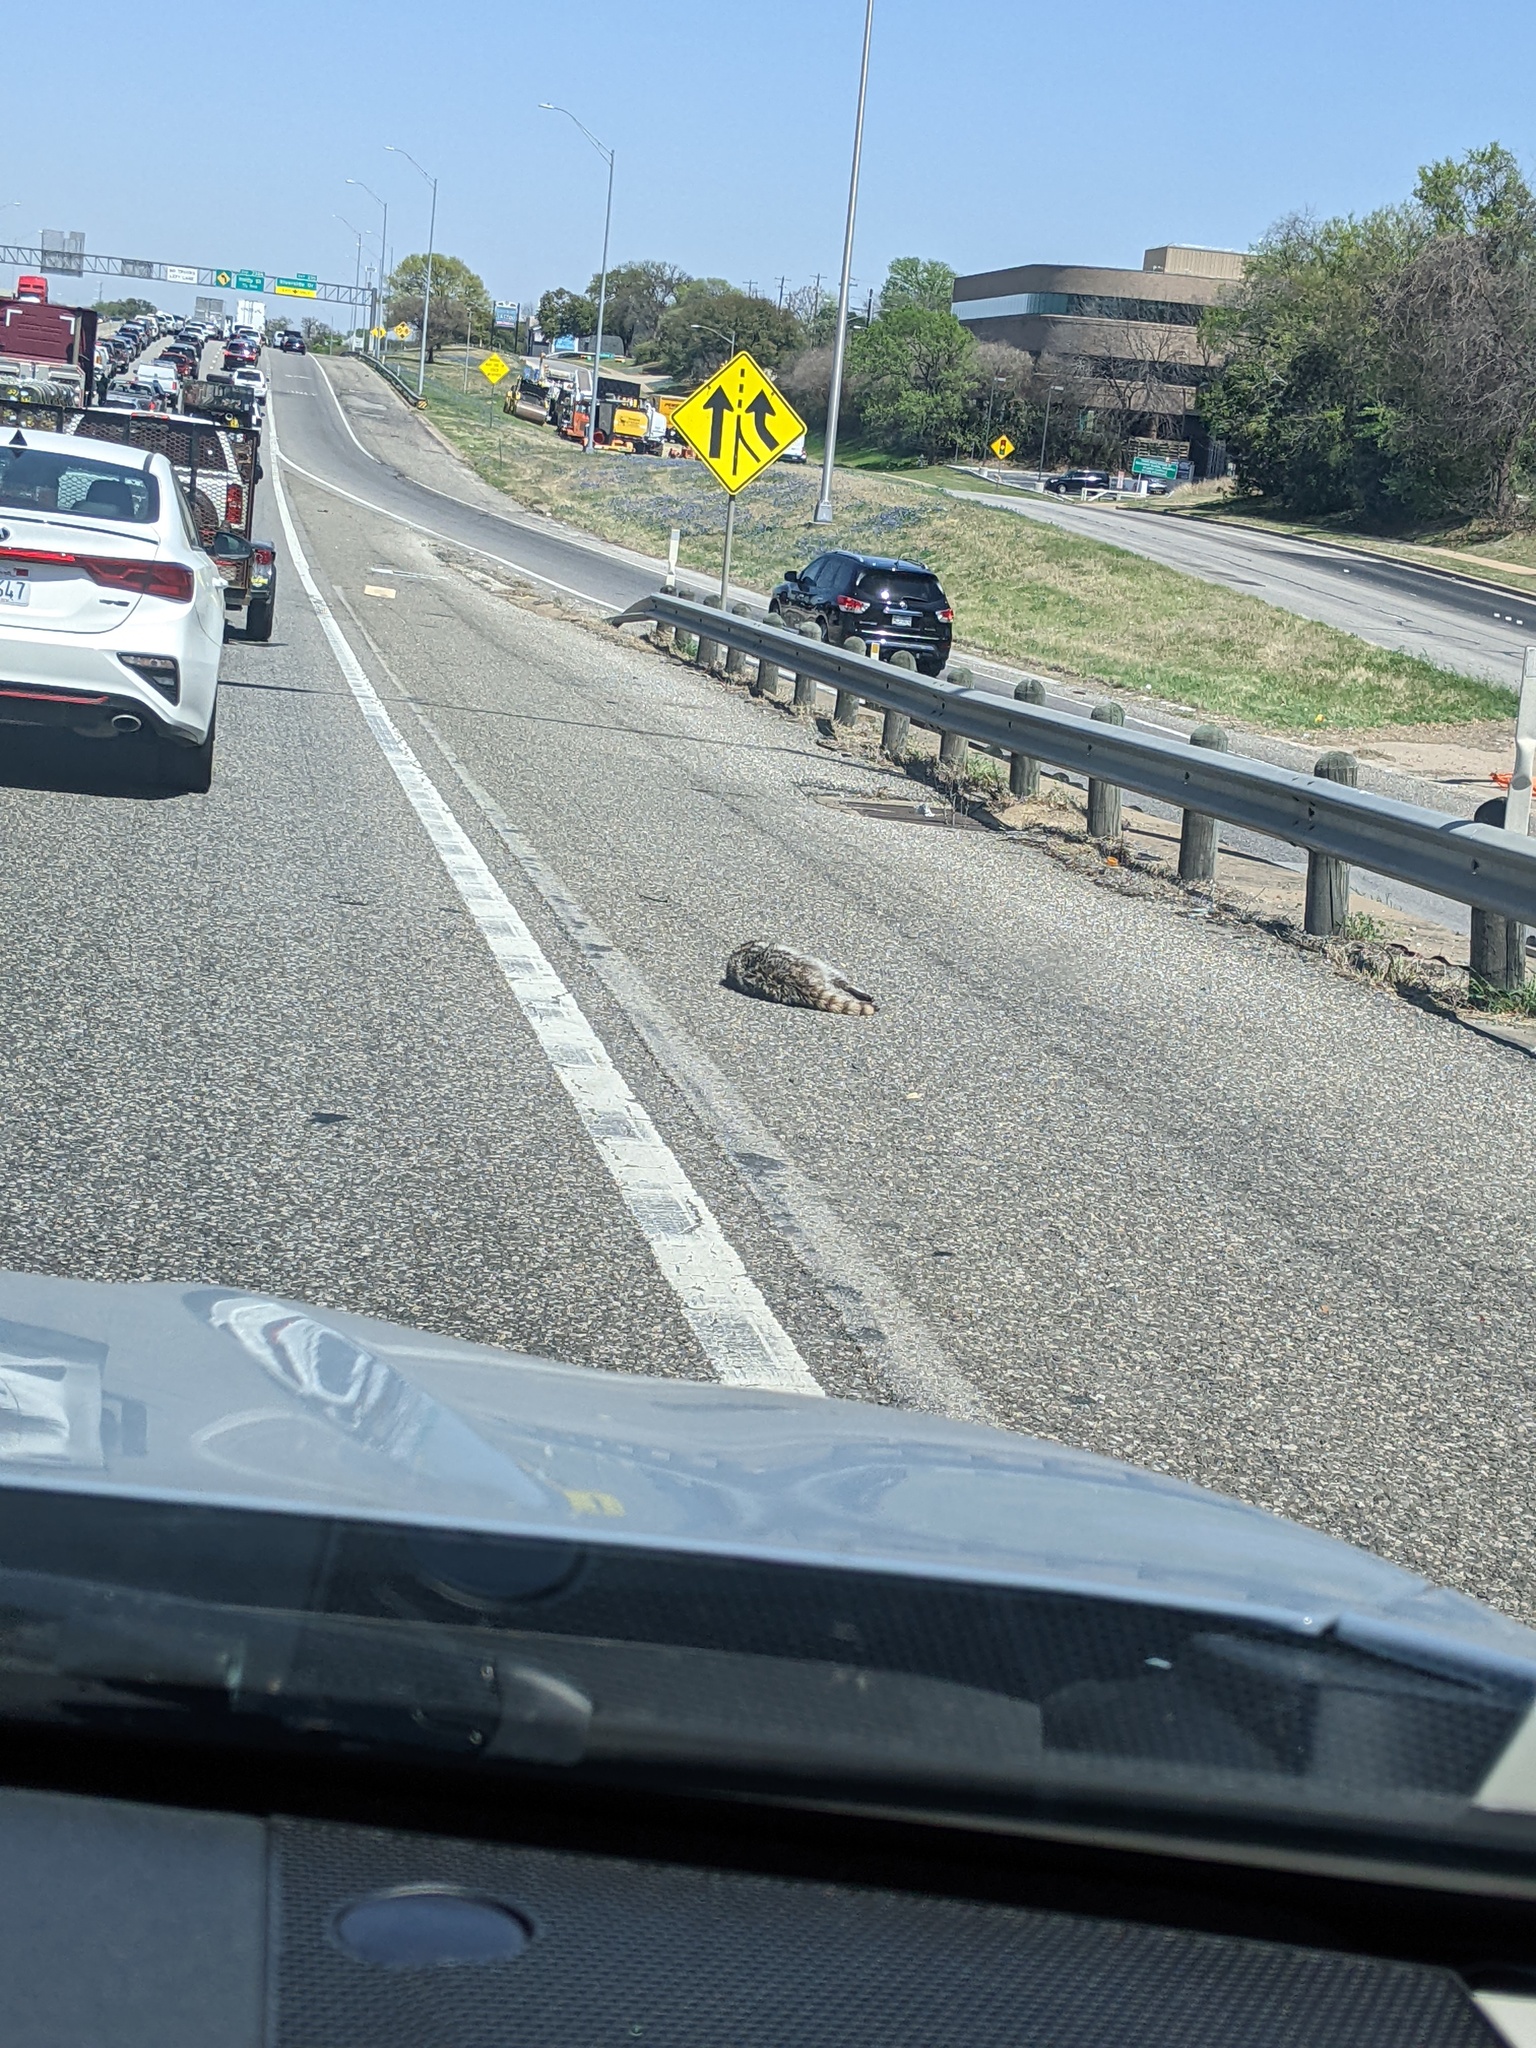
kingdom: Animalia
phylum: Chordata
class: Mammalia
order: Carnivora
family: Procyonidae
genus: Procyon
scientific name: Procyon lotor
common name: Raccoon
